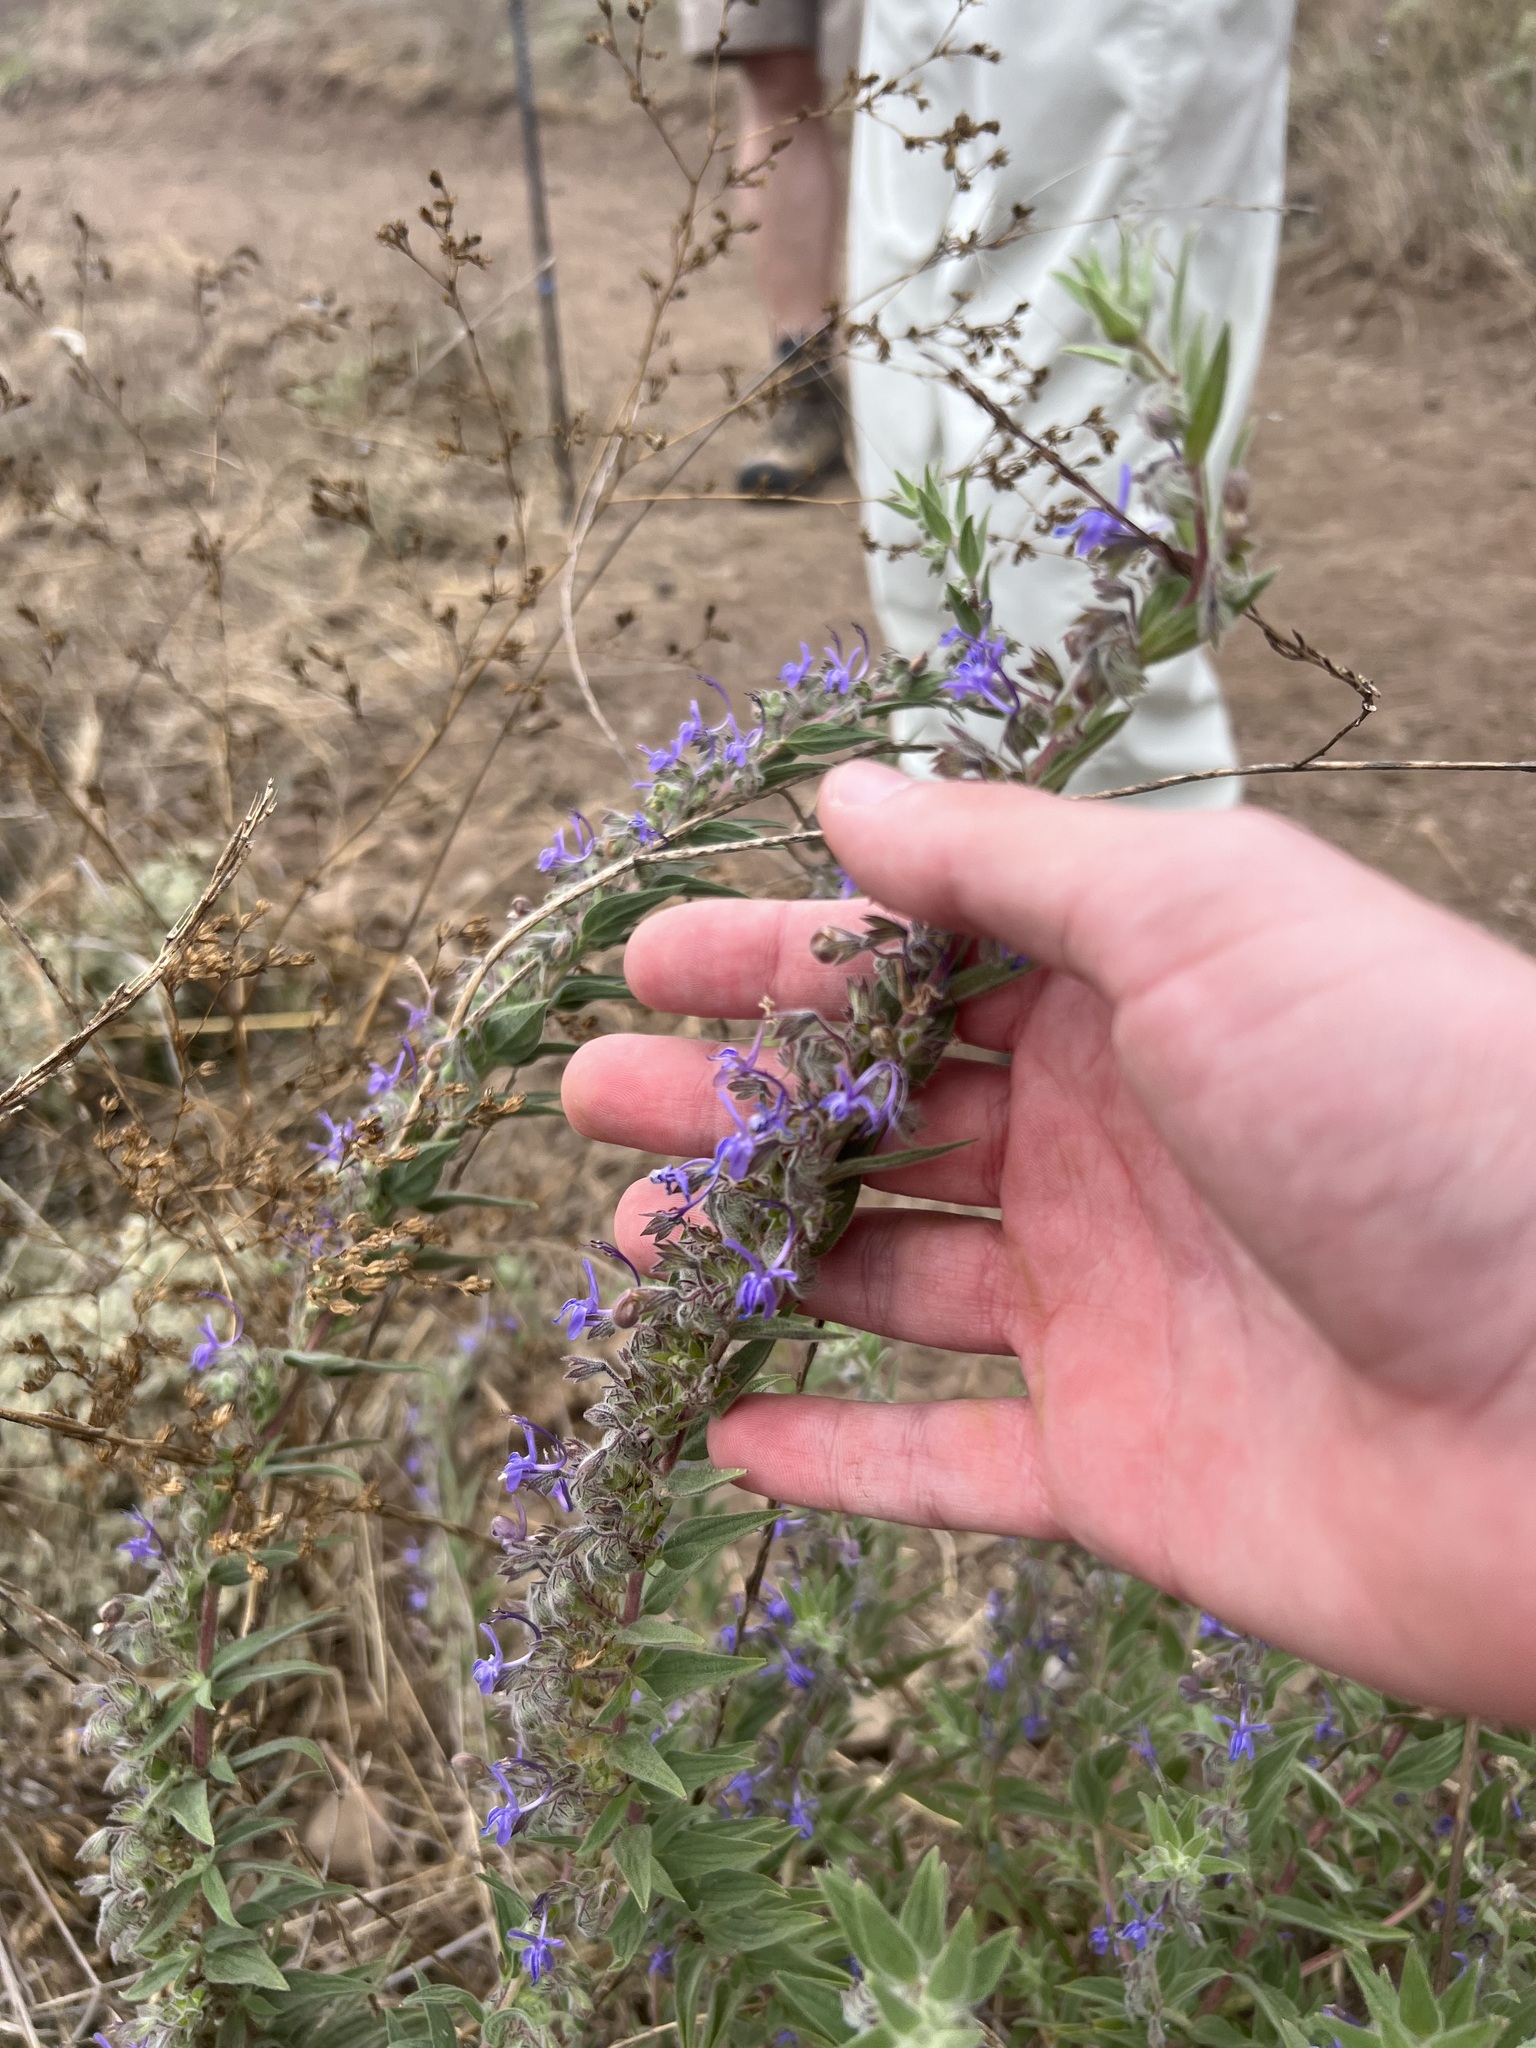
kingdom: Plantae
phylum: Tracheophyta
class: Magnoliopsida
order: Lamiales
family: Lamiaceae
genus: Trichostema
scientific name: Trichostema lanceolatum
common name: Vinegar-weed
